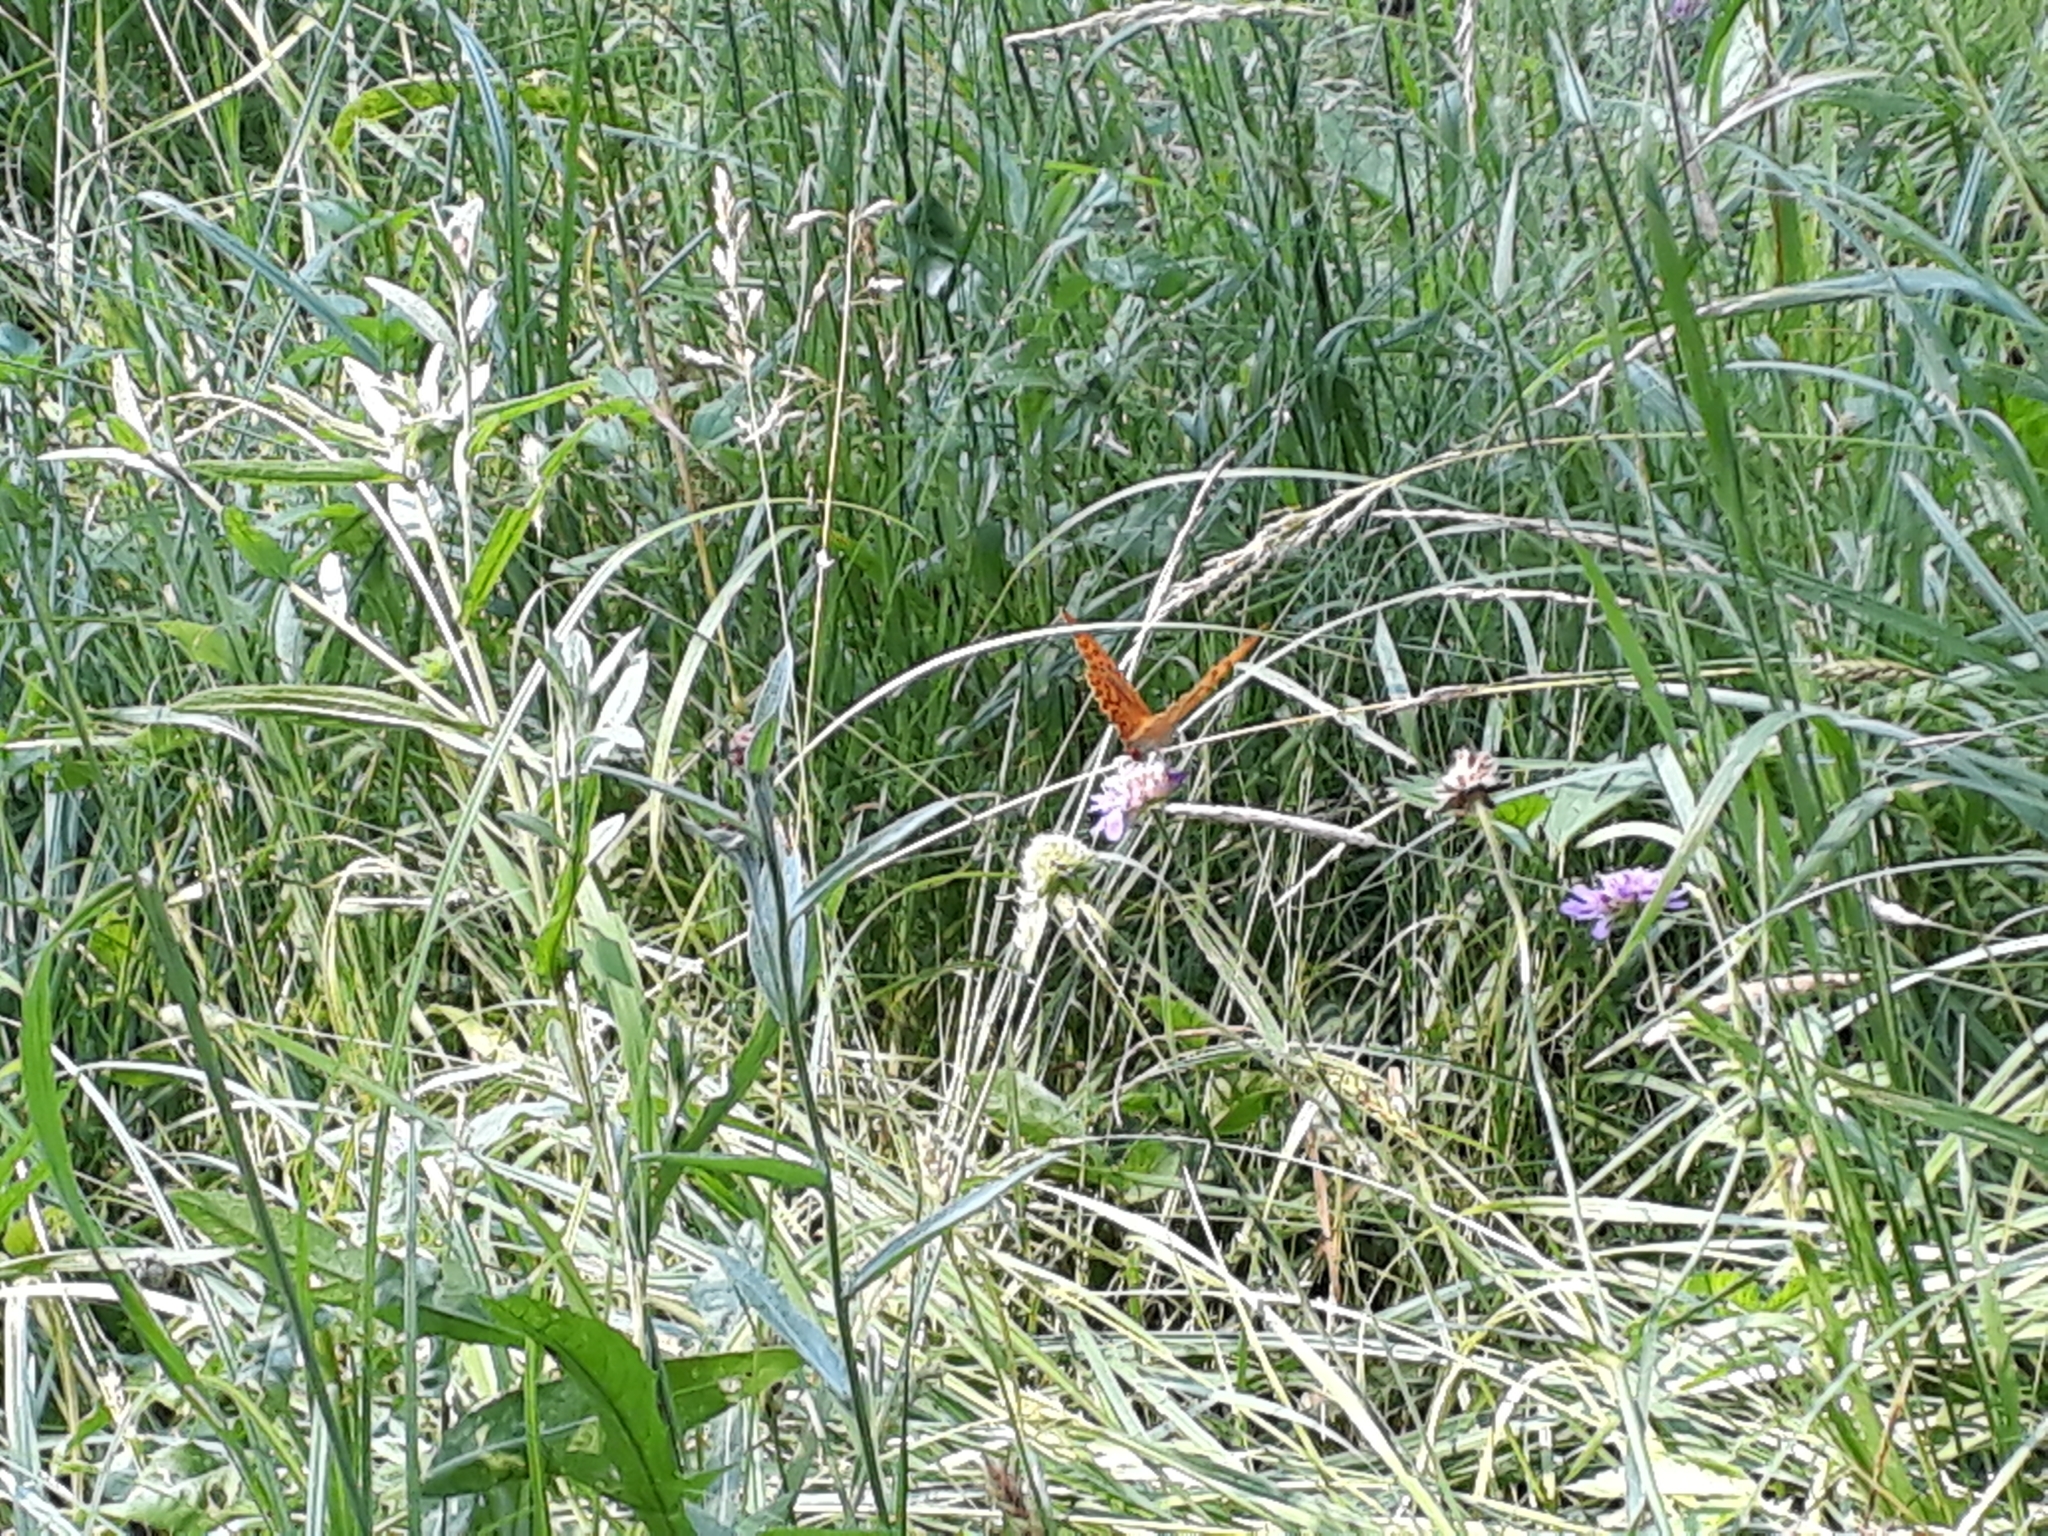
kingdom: Animalia
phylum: Arthropoda
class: Insecta
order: Lepidoptera
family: Nymphalidae
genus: Argynnis
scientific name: Argynnis paphia
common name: Silver-washed fritillary
